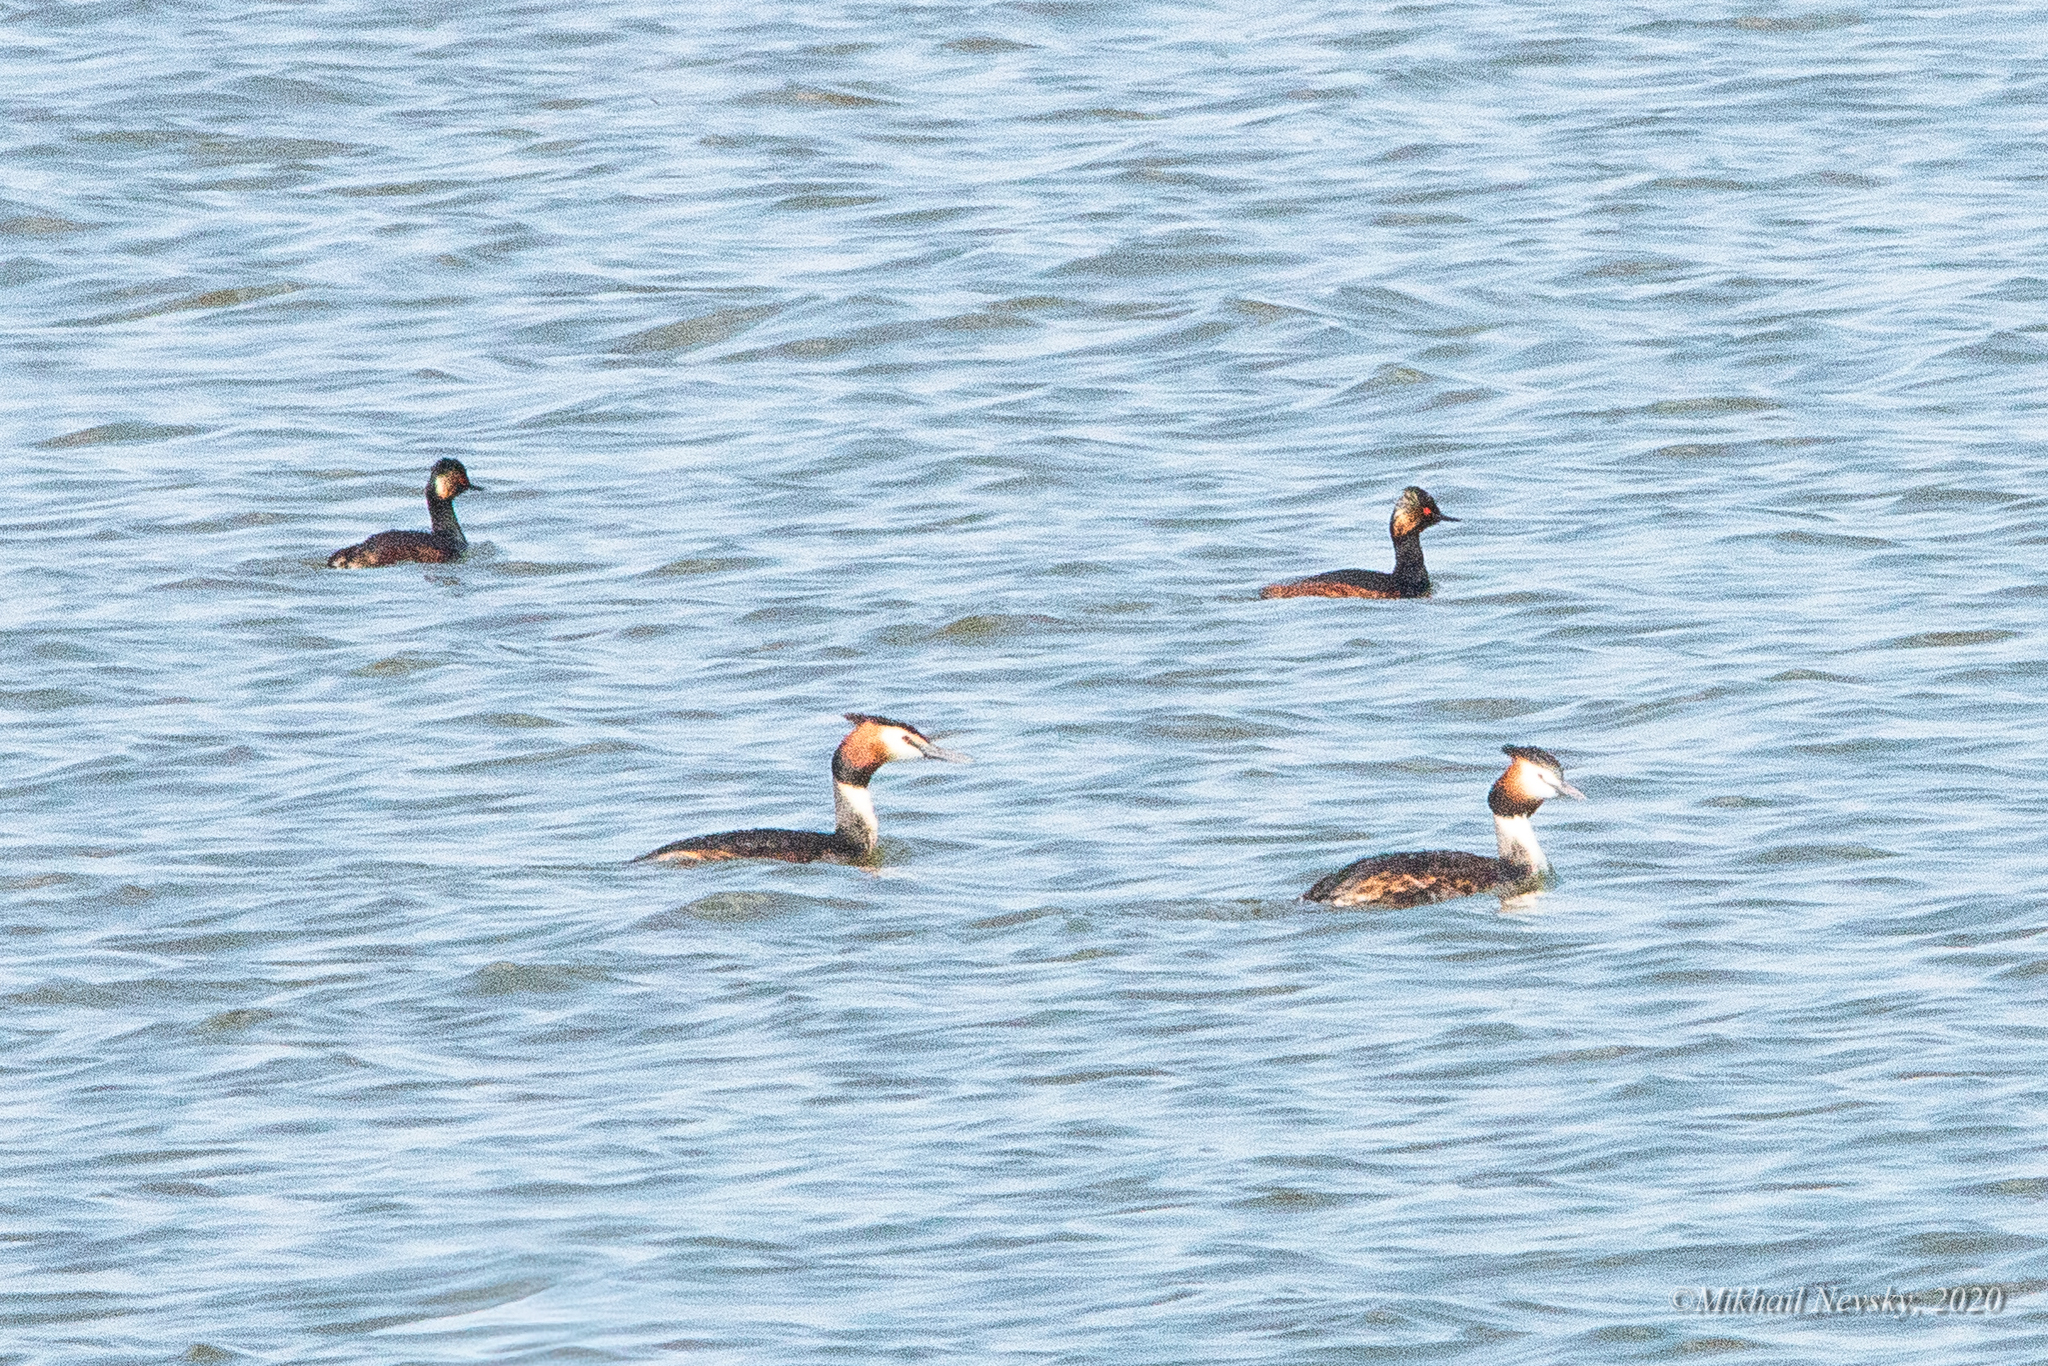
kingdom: Animalia
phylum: Chordata
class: Aves
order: Podicipediformes
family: Podicipedidae
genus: Podiceps
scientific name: Podiceps nigricollis
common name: Black-necked grebe
